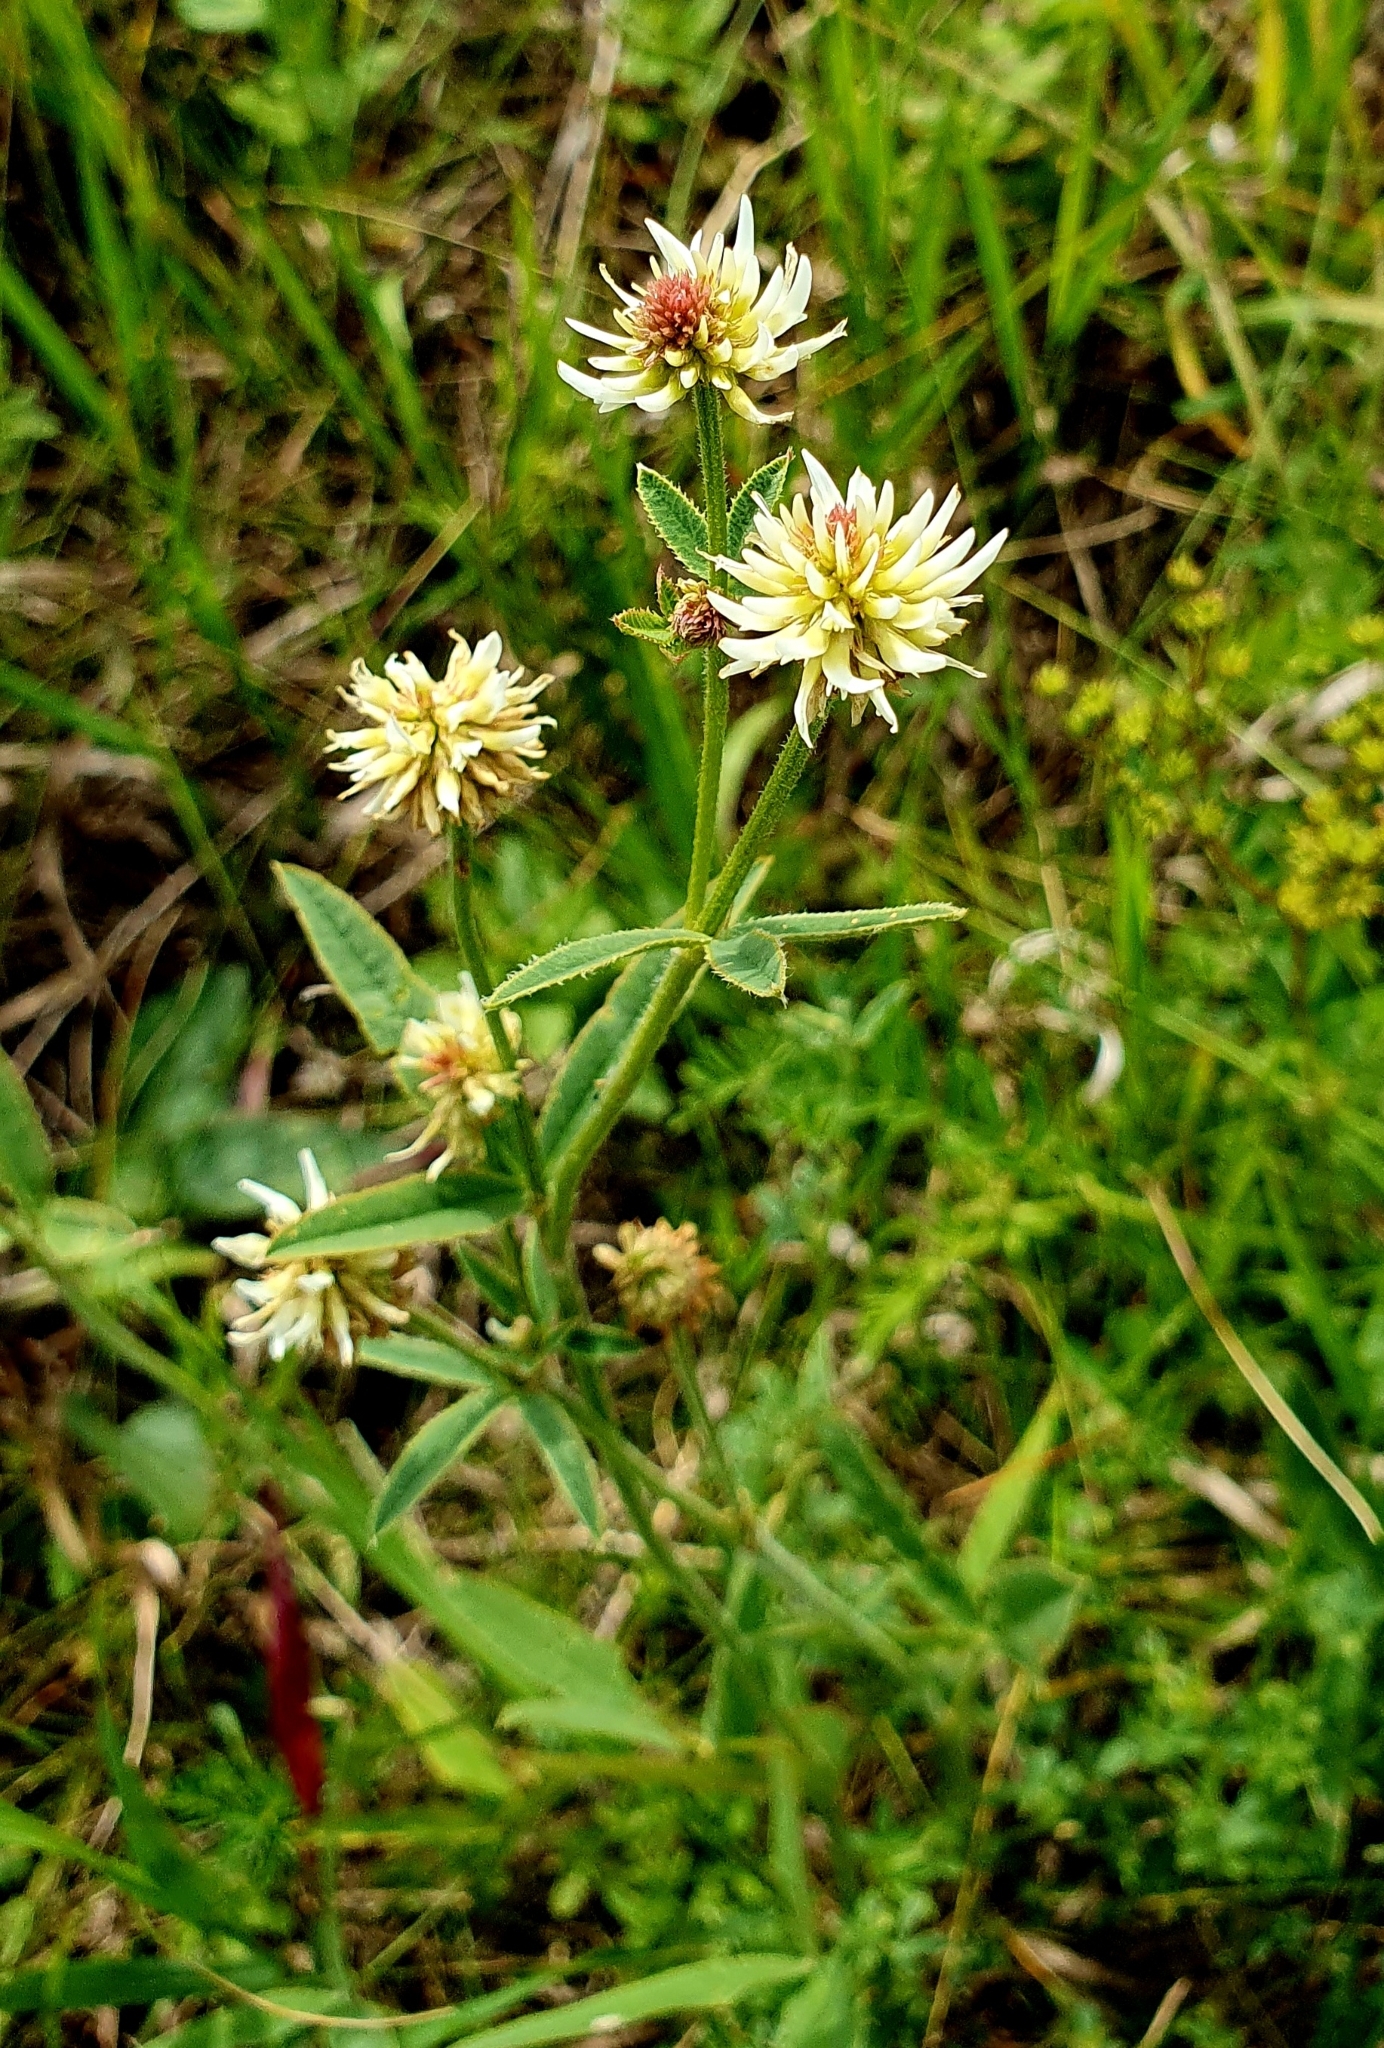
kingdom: Plantae
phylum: Tracheophyta
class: Magnoliopsida
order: Fabales
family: Fabaceae
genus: Trifolium
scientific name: Trifolium montanum
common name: Mountain clover
